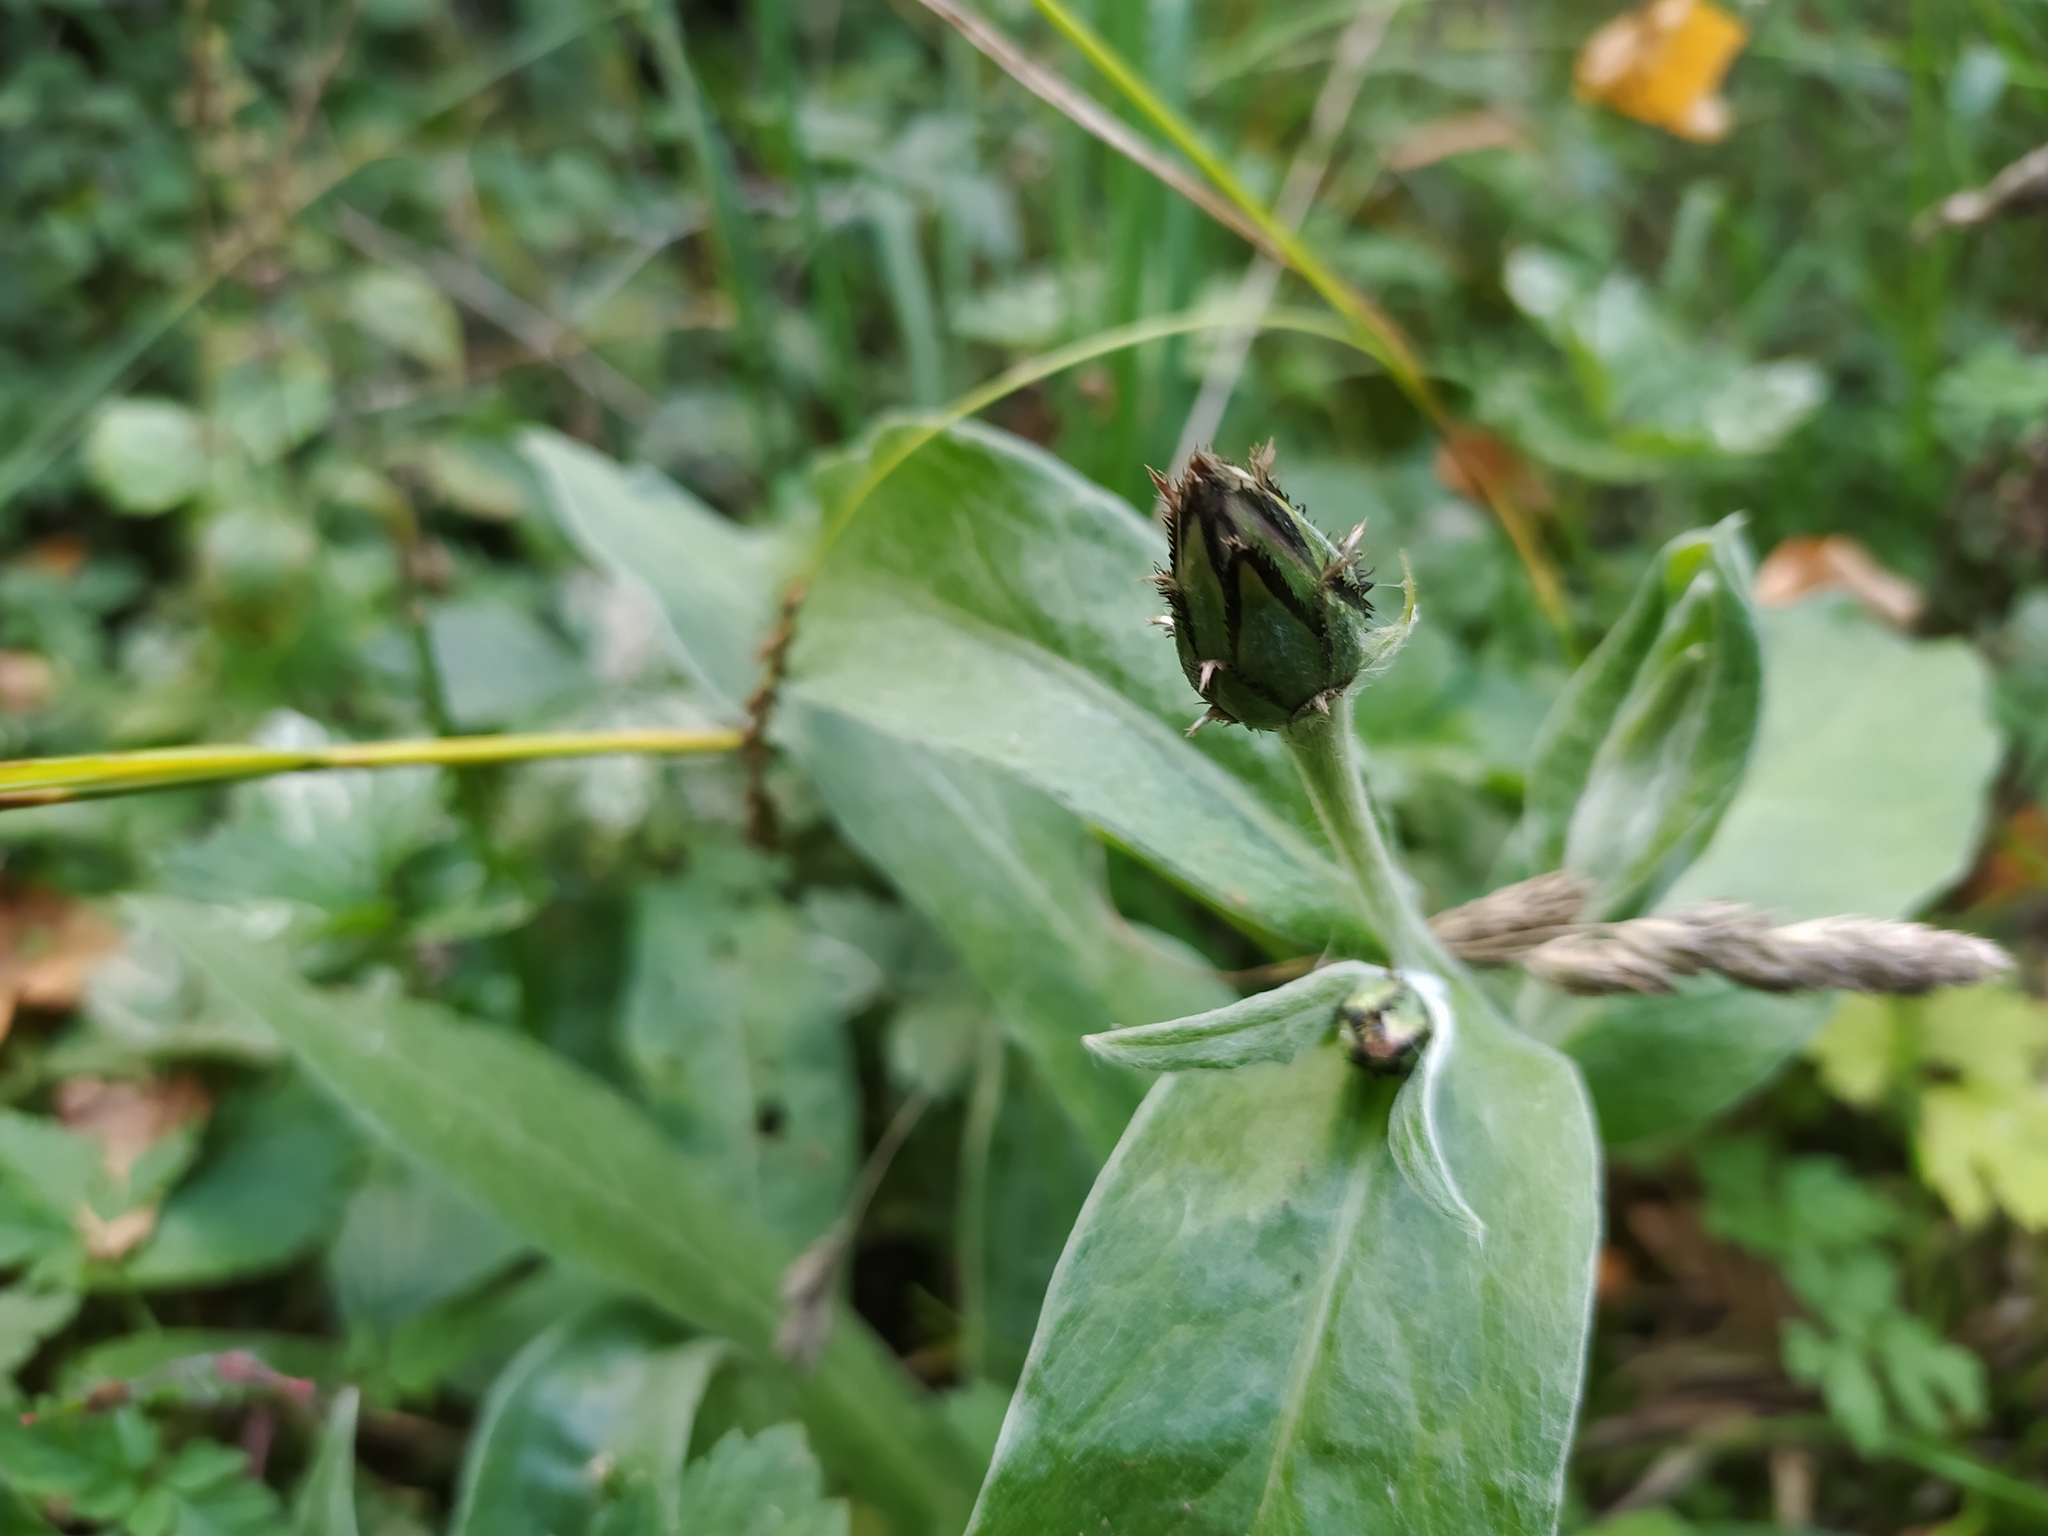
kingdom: Plantae
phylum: Tracheophyta
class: Magnoliopsida
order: Asterales
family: Asteraceae
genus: Centaurea
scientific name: Centaurea montana
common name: Perennial cornflower
